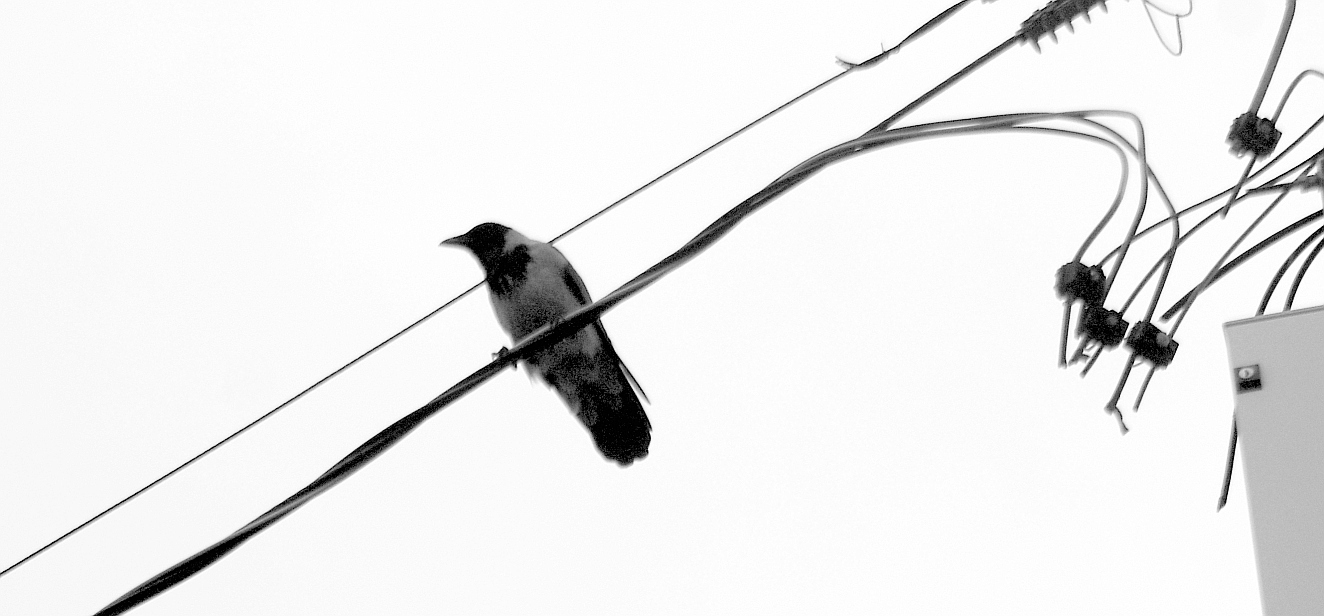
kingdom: Animalia
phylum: Chordata
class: Aves
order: Passeriformes
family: Corvidae
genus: Corvus
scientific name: Corvus cornix
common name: Hooded crow
